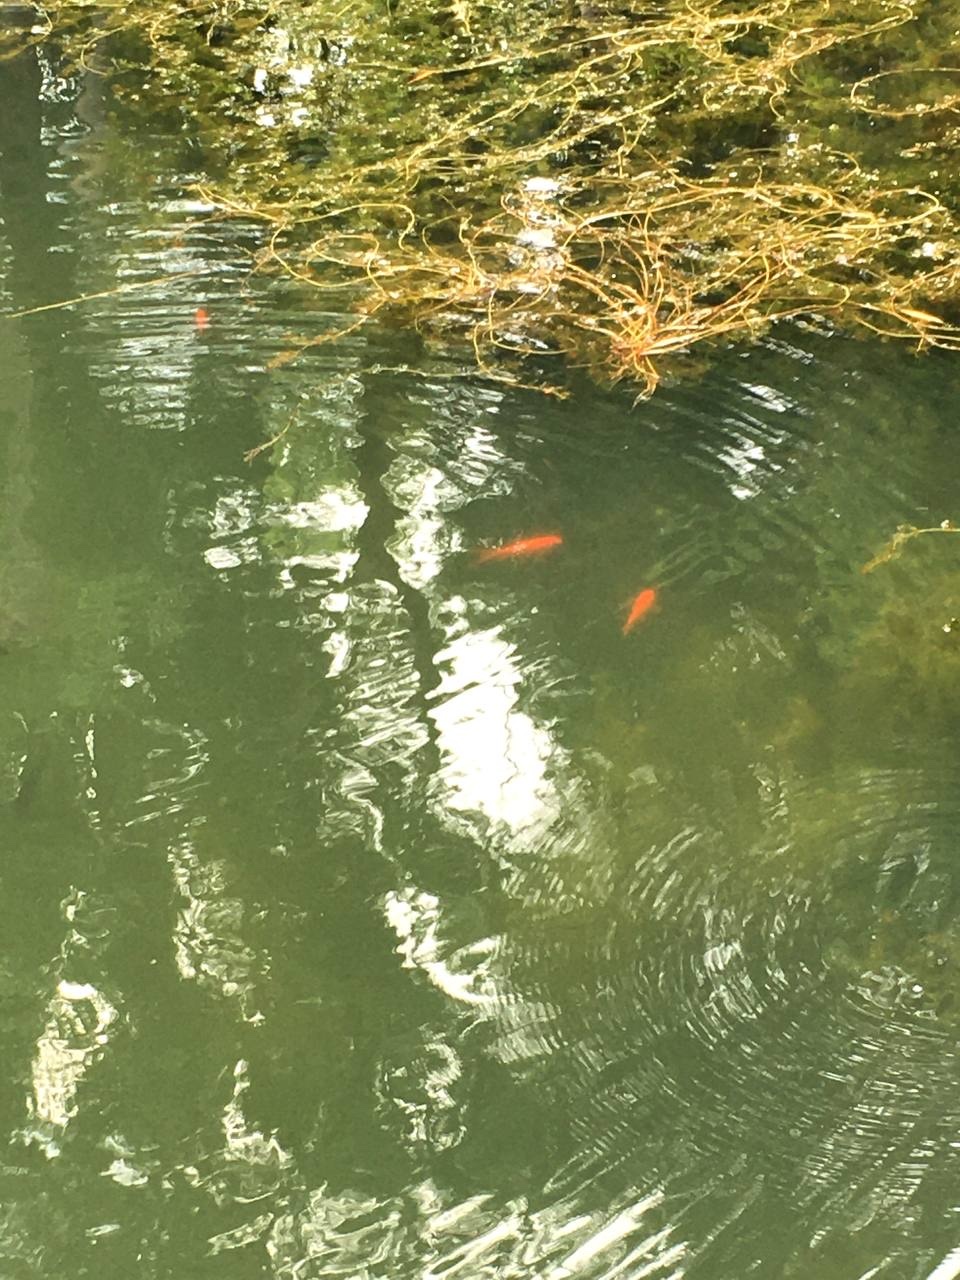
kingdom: Animalia
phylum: Chordata
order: Cypriniformes
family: Cyprinidae
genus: Carassius
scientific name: Carassius auratus
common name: Goldfish
